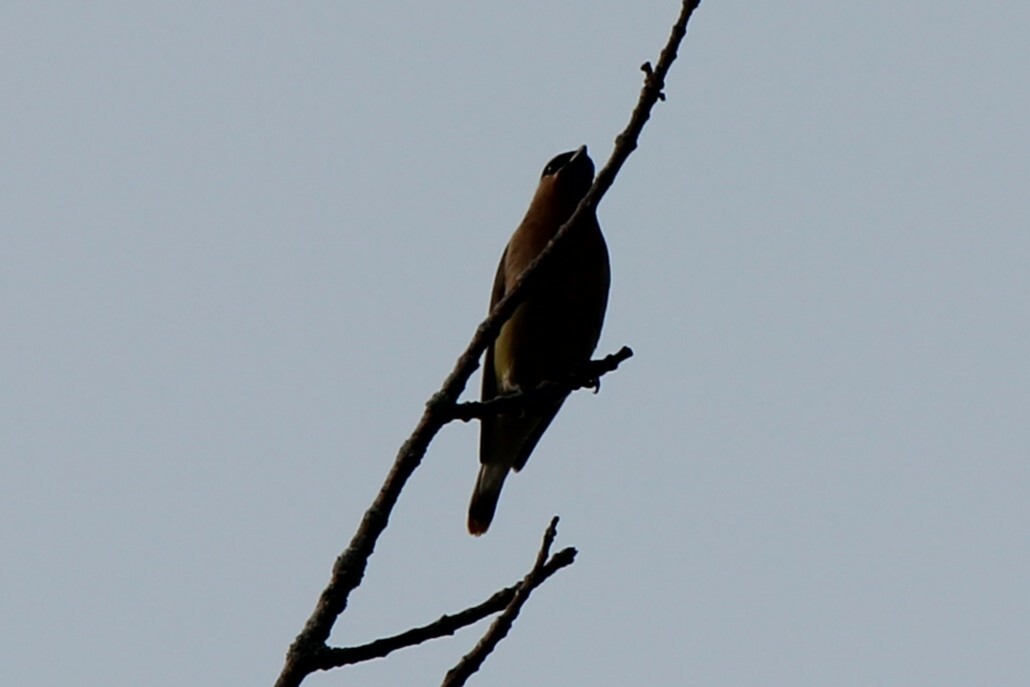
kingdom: Animalia
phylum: Chordata
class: Aves
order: Passeriformes
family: Bombycillidae
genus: Bombycilla
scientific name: Bombycilla cedrorum
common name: Cedar waxwing
